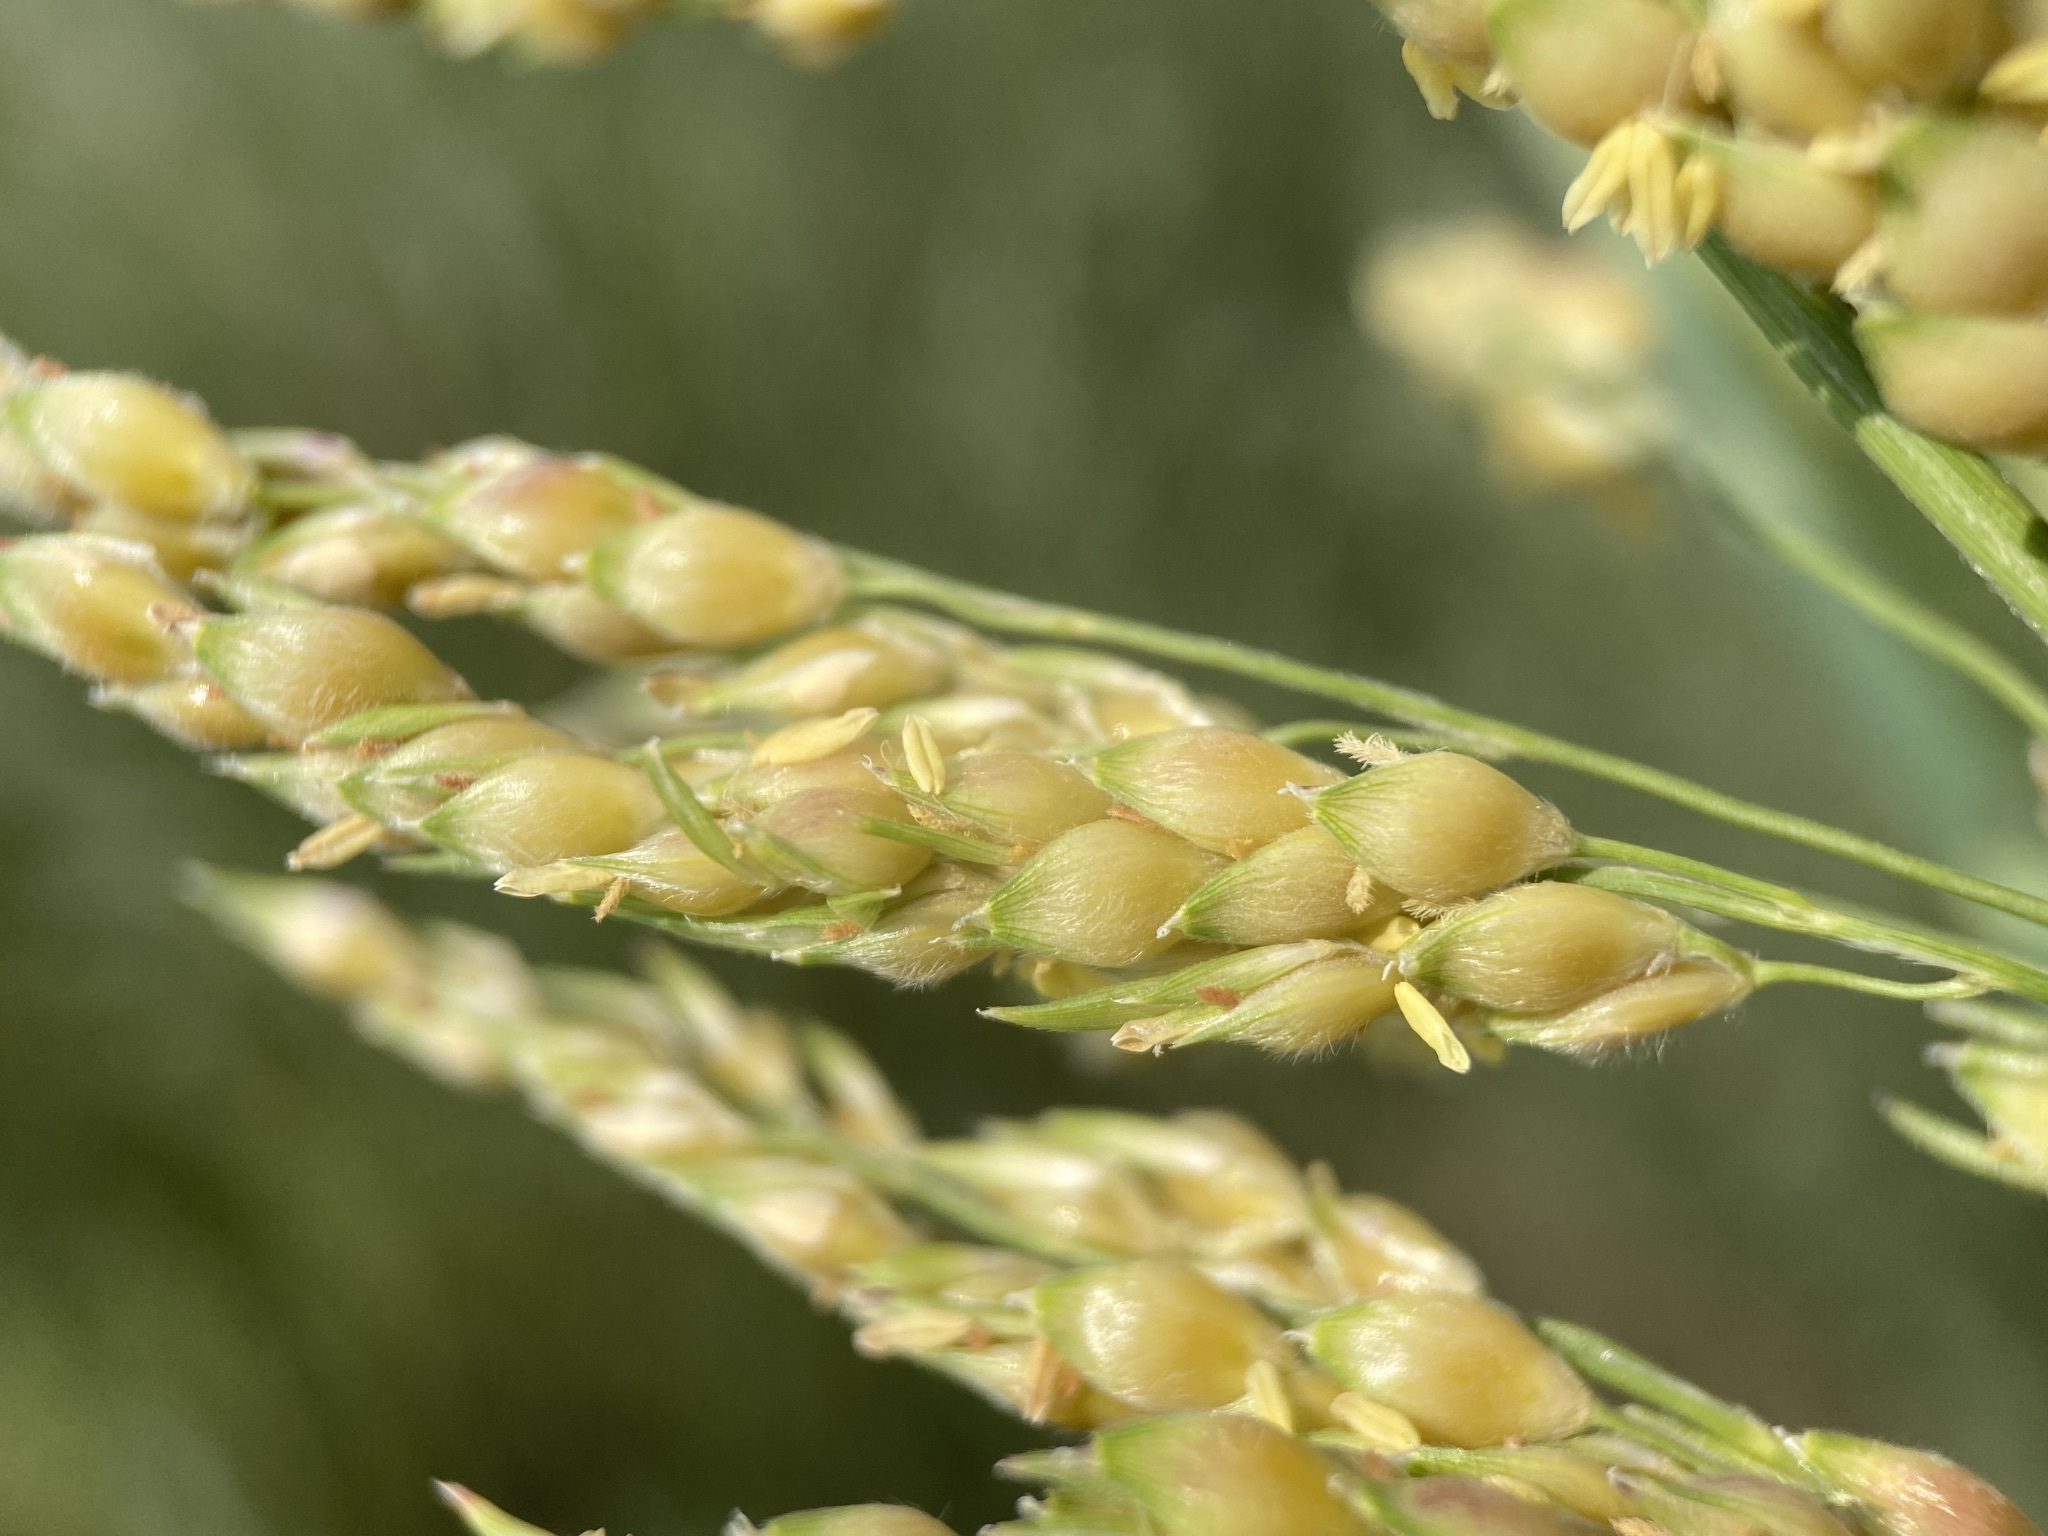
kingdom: Plantae
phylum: Tracheophyta
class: Liliopsida
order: Poales
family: Poaceae
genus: Sorghum
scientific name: Sorghum bicolor
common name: Sorghum
